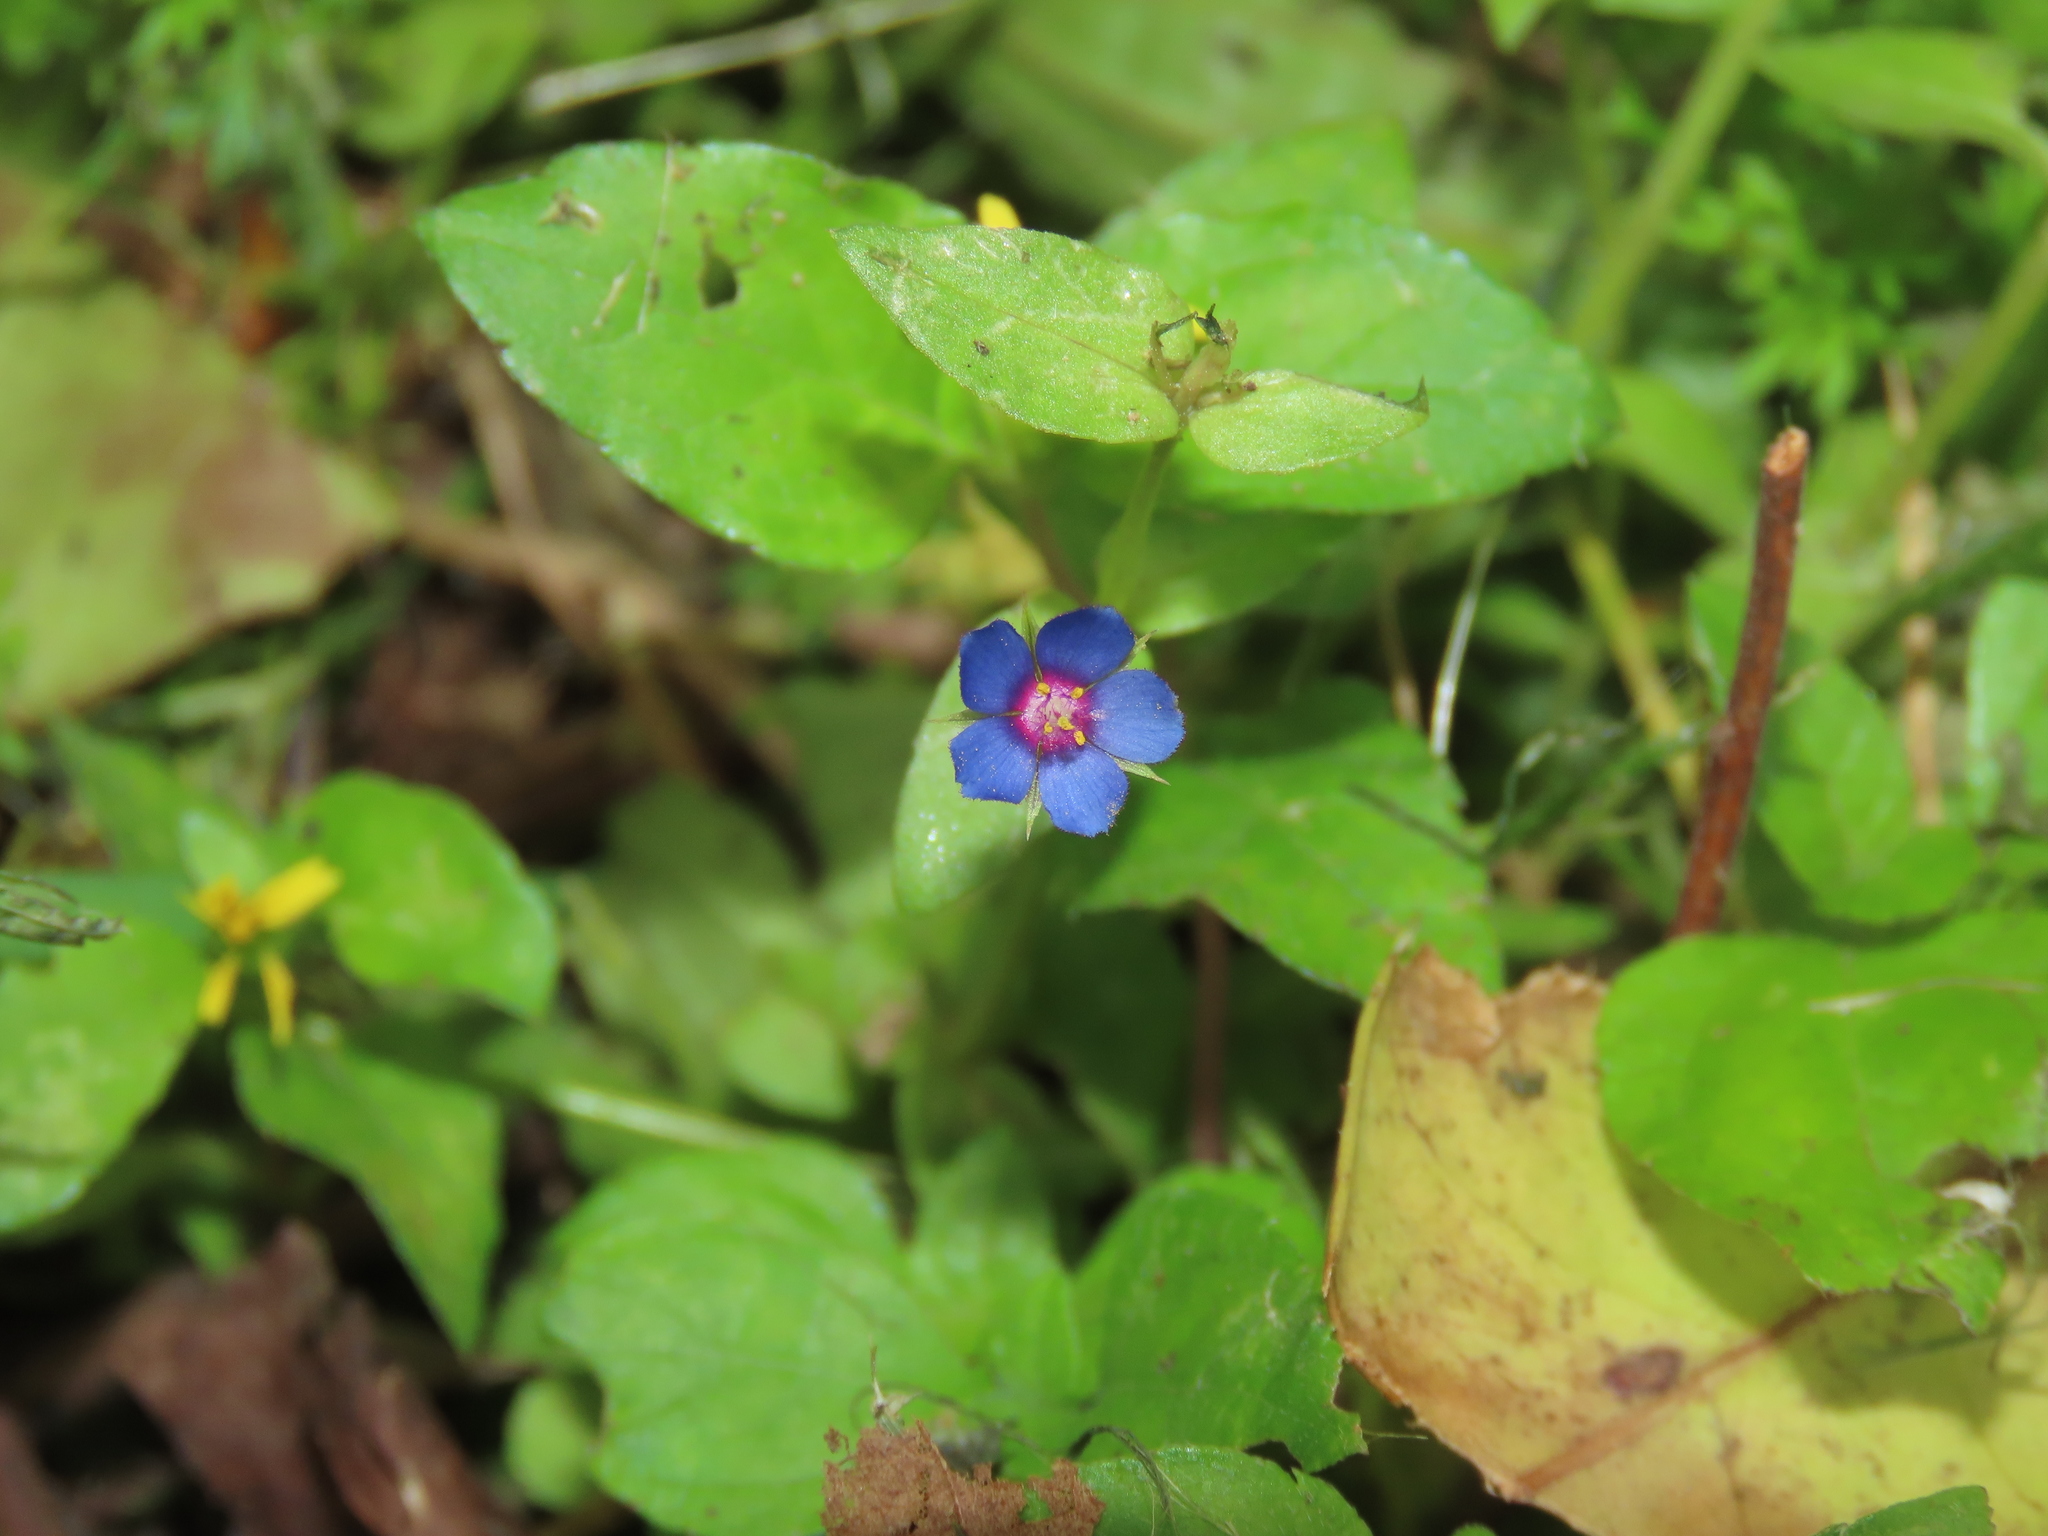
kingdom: Plantae
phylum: Tracheophyta
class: Magnoliopsida
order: Ericales
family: Primulaceae
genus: Lysimachia
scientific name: Lysimachia loeflingii
